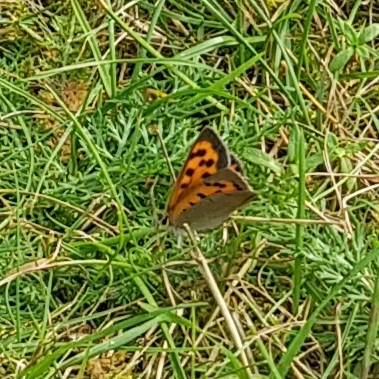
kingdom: Animalia
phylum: Arthropoda
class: Insecta
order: Lepidoptera
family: Lycaenidae
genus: Lycaena
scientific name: Lycaena phlaeas
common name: Small copper
